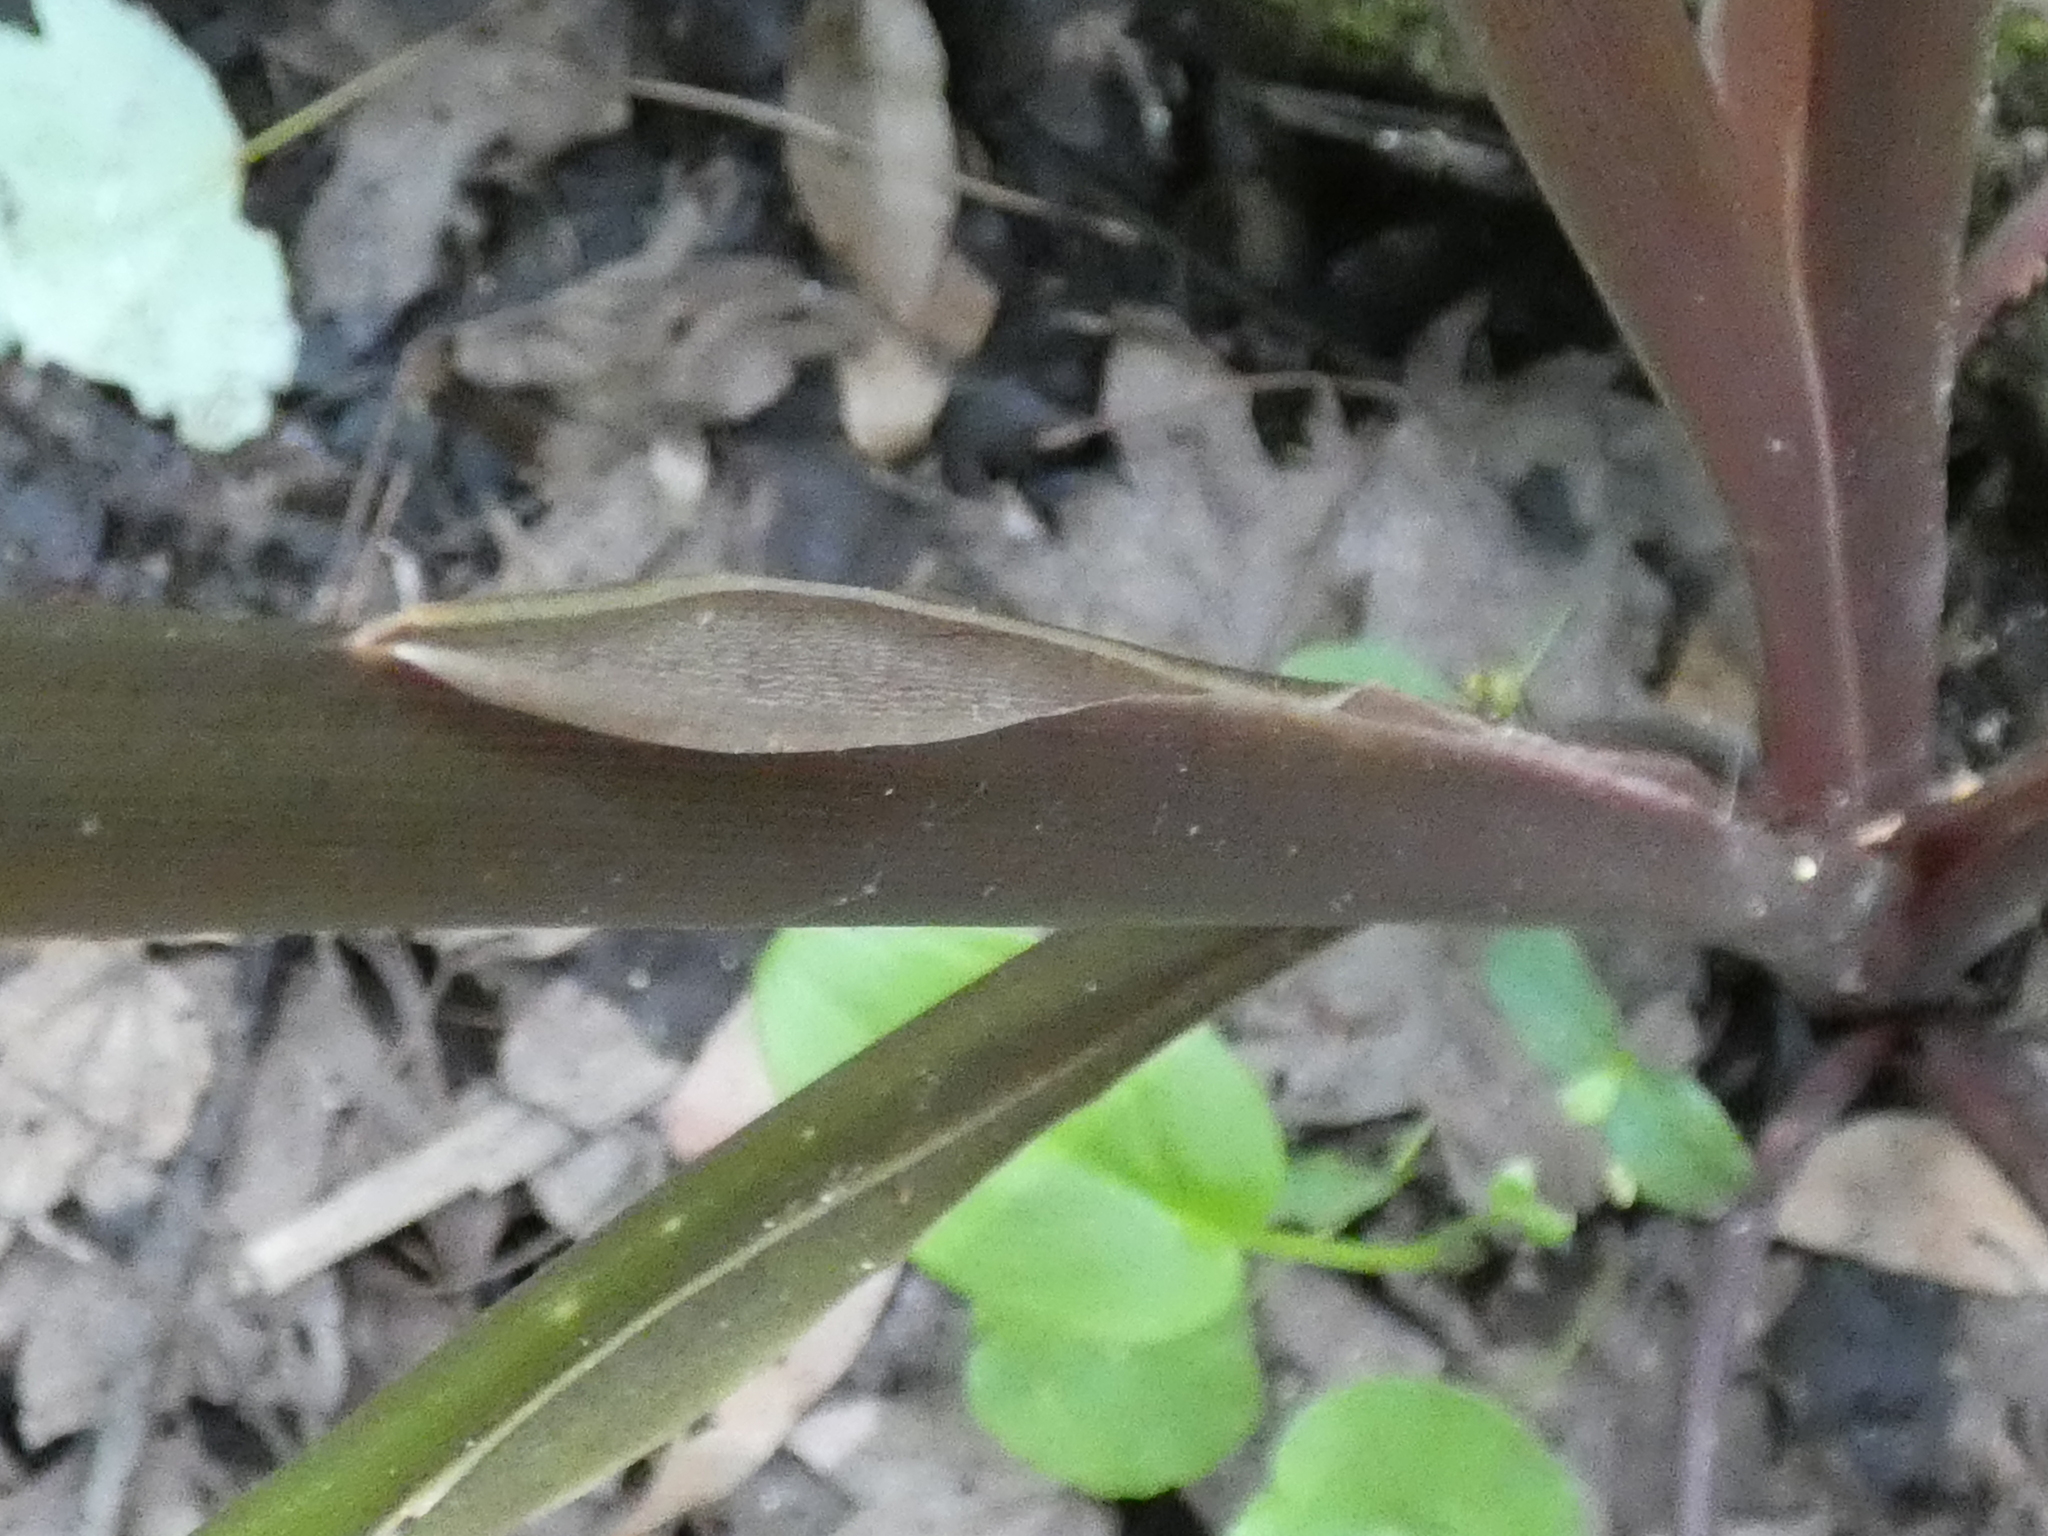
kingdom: Plantae
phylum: Tracheophyta
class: Liliopsida
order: Alismatales
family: Araceae
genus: Peltandra
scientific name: Peltandra virginica
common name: Arrow arum
